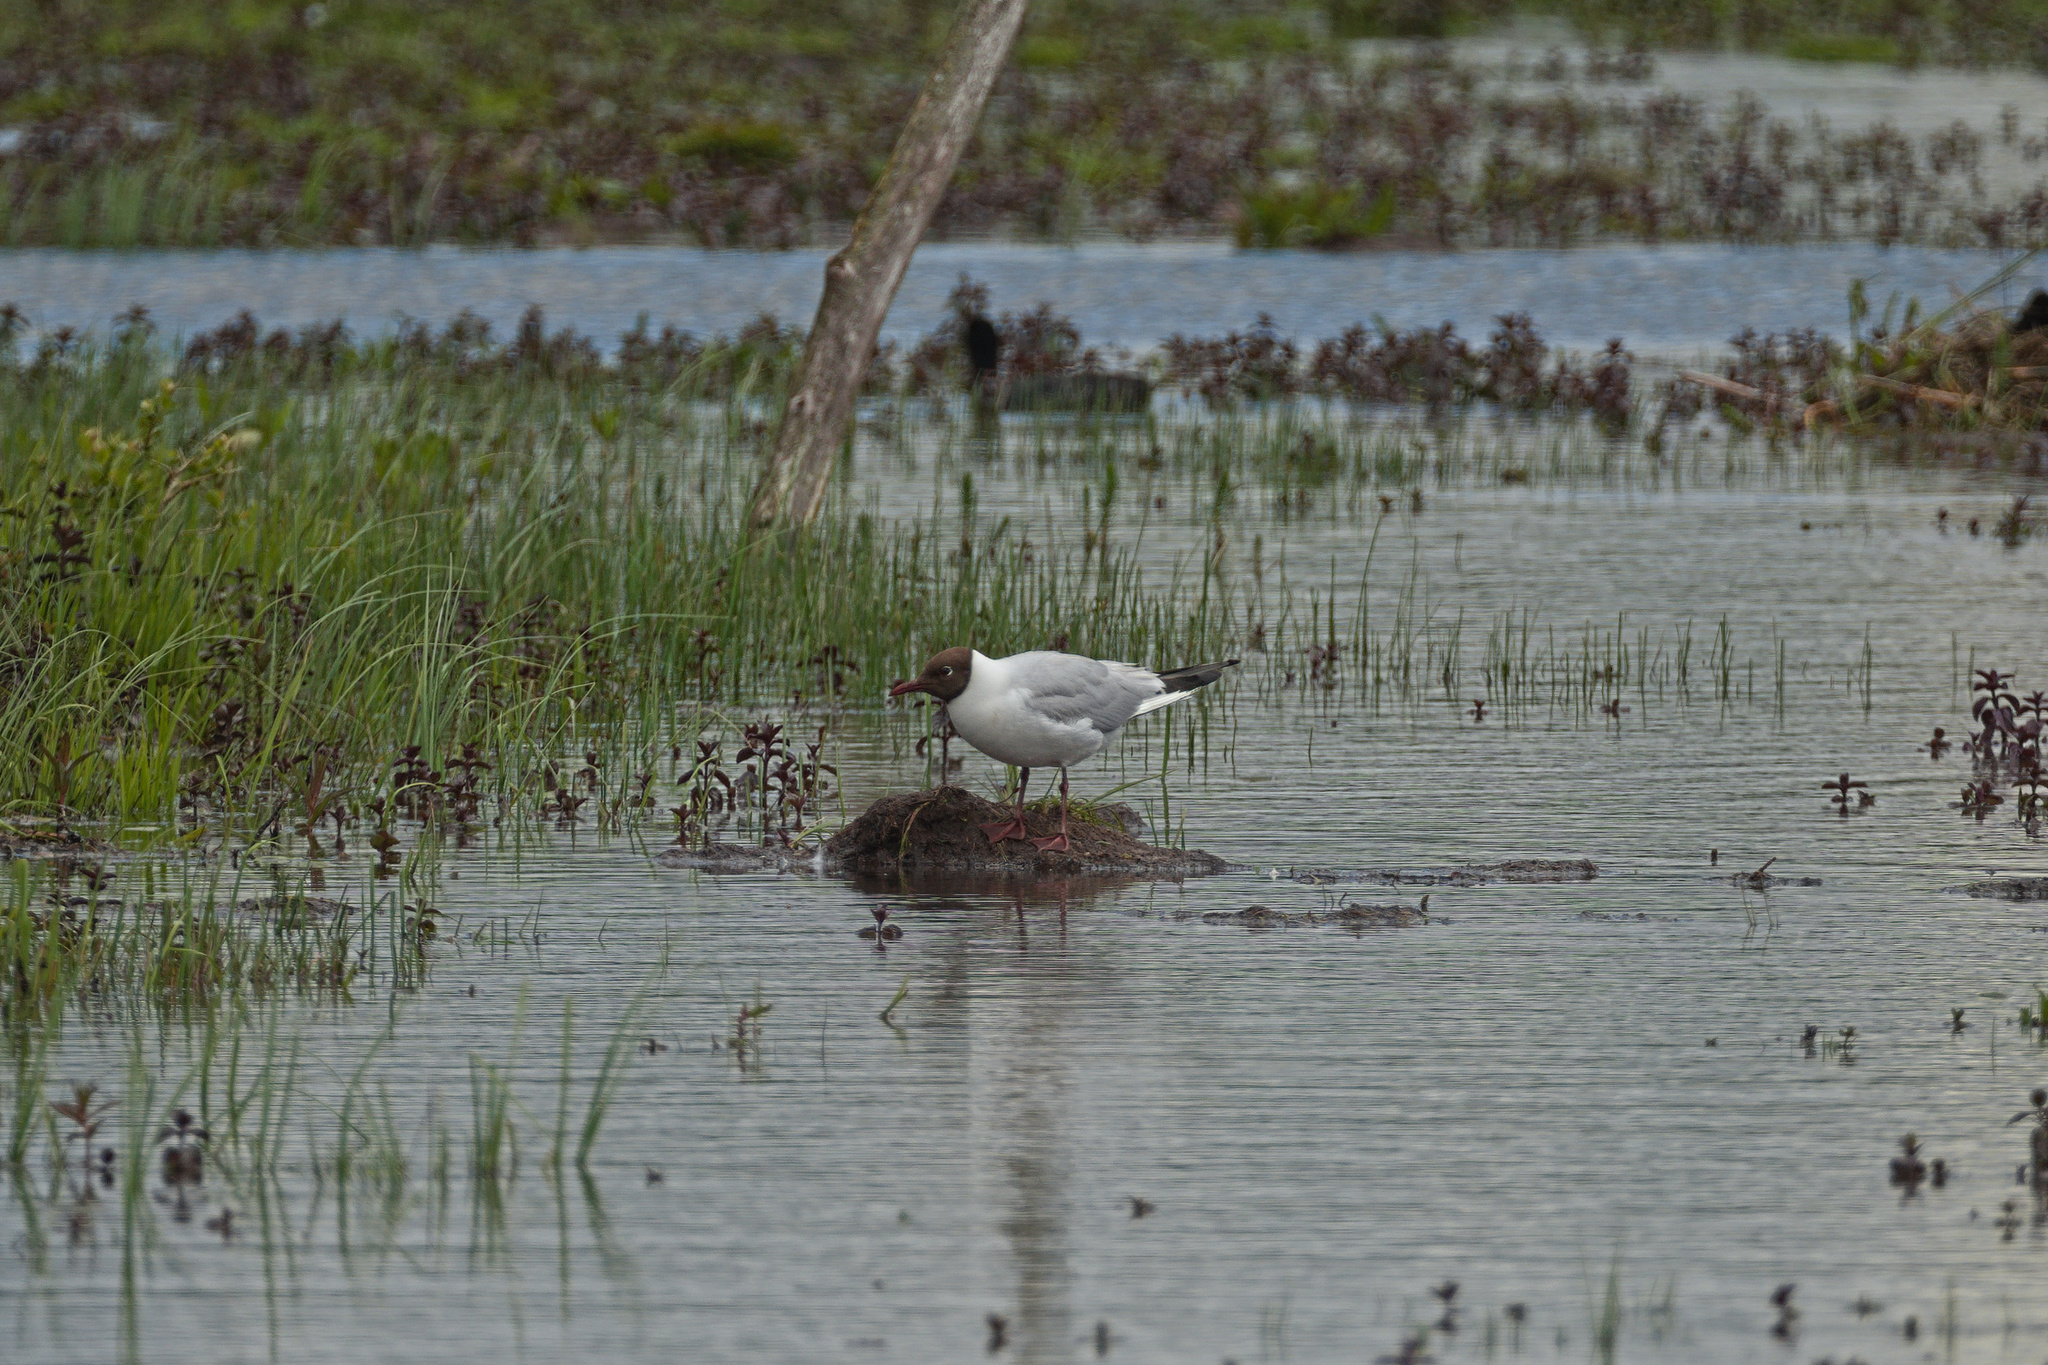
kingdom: Animalia
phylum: Chordata
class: Aves
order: Charadriiformes
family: Laridae
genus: Chroicocephalus
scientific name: Chroicocephalus ridibundus
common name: Black-headed gull
